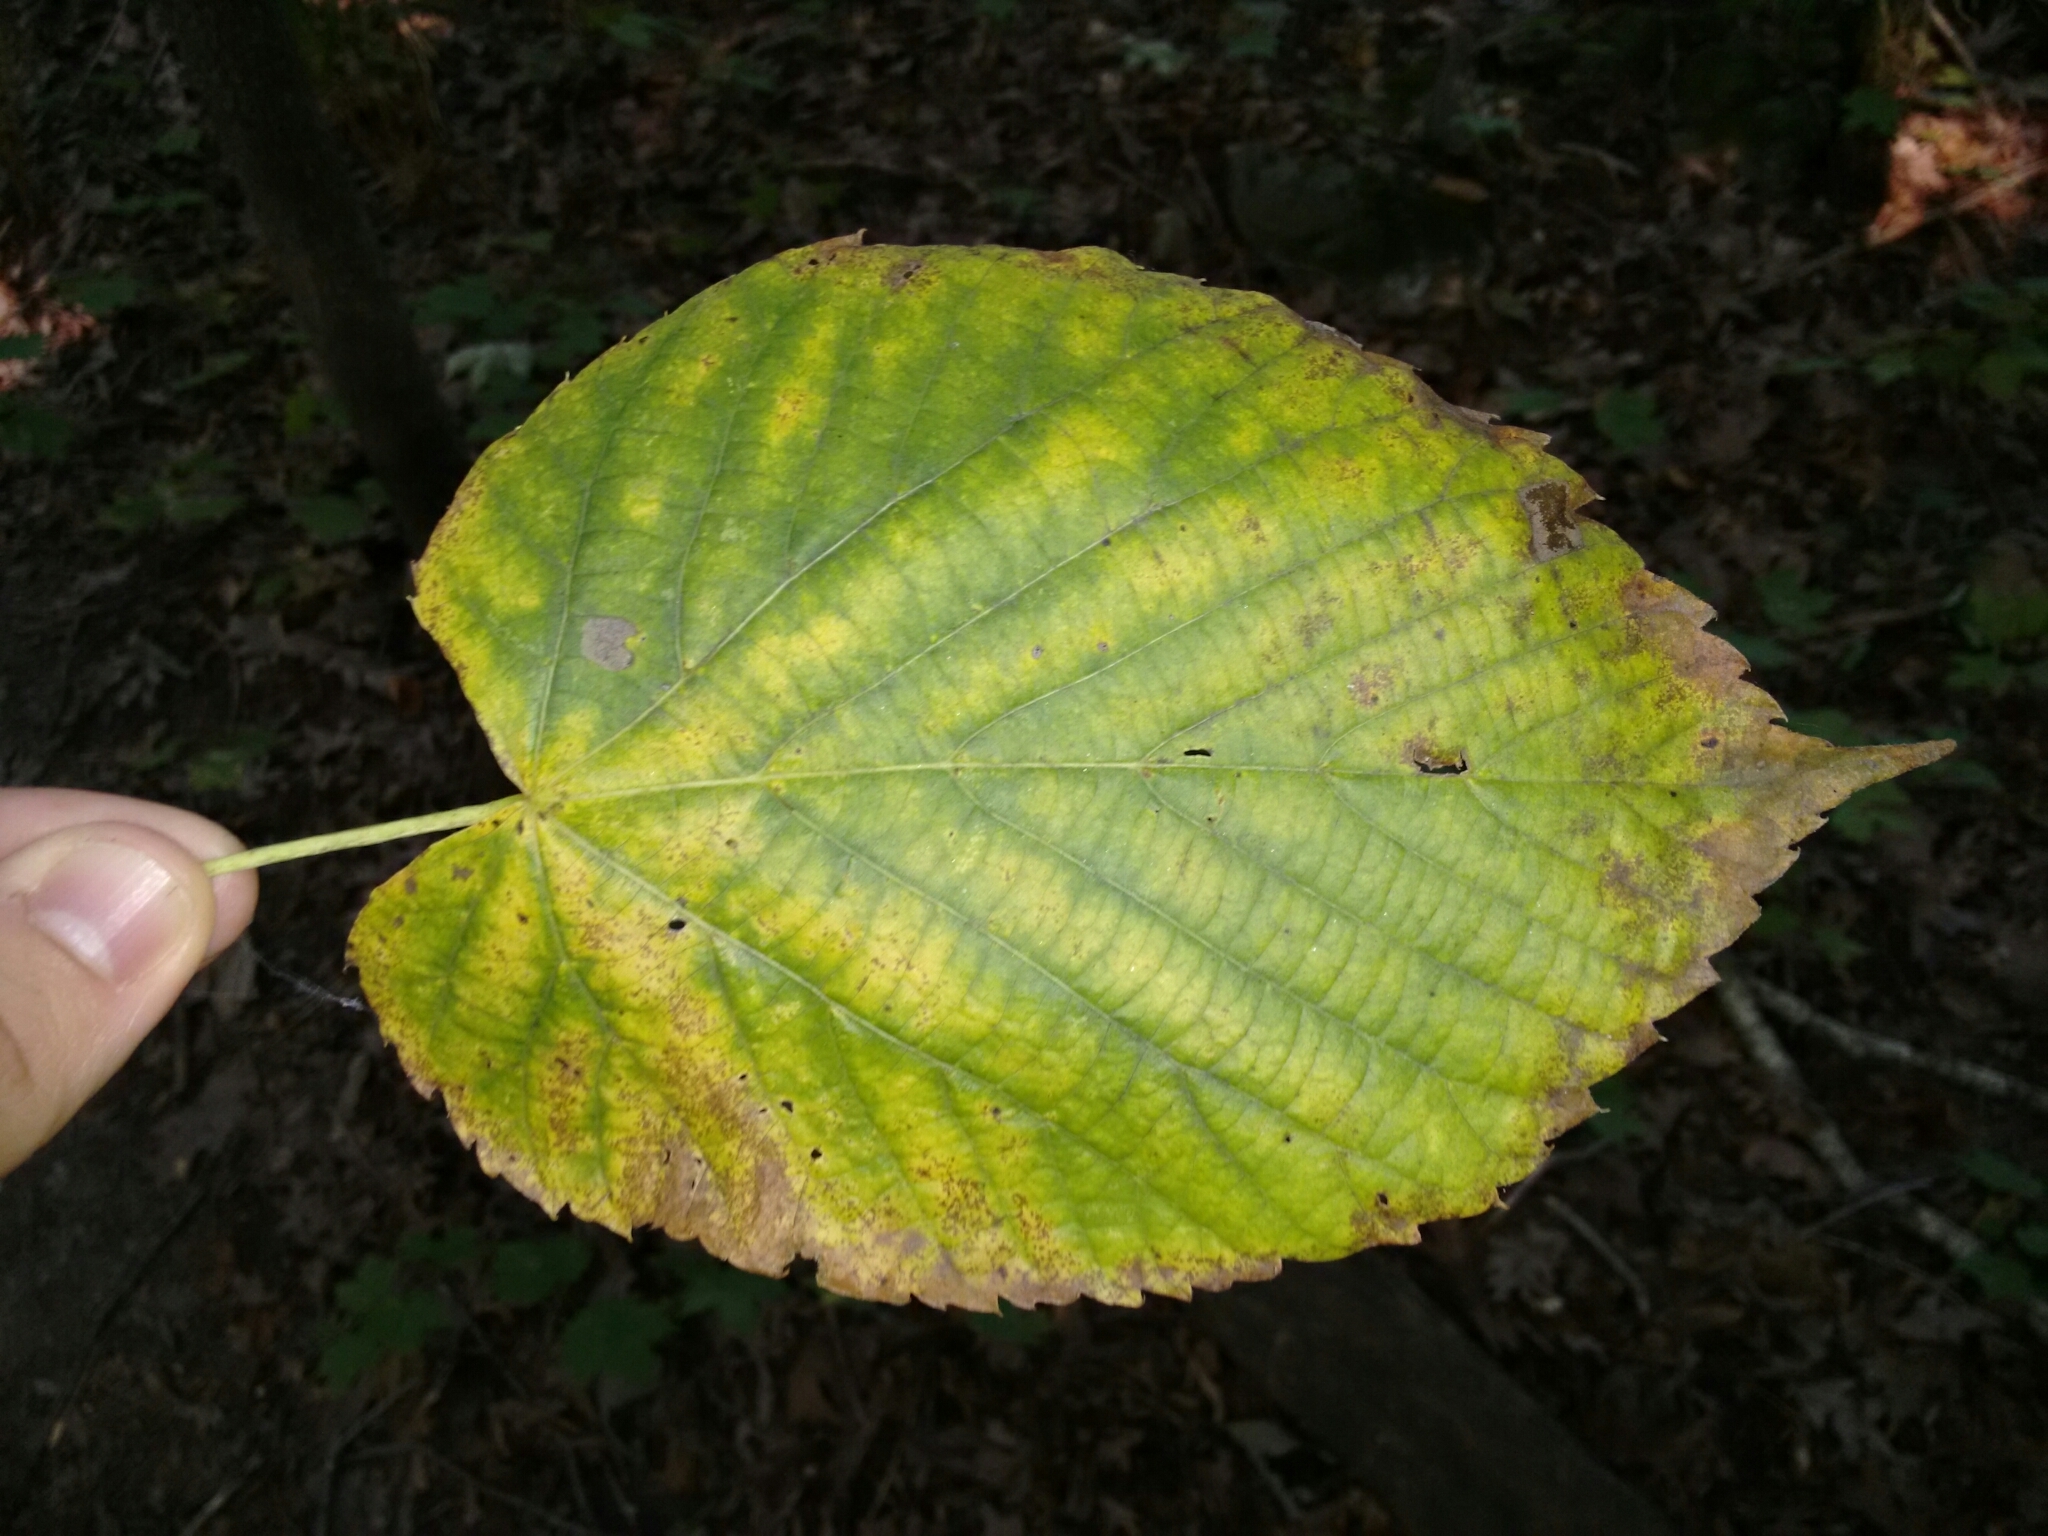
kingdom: Plantae
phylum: Tracheophyta
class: Magnoliopsida
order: Malvales
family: Malvaceae
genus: Tilia
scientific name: Tilia americana
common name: Basswood
